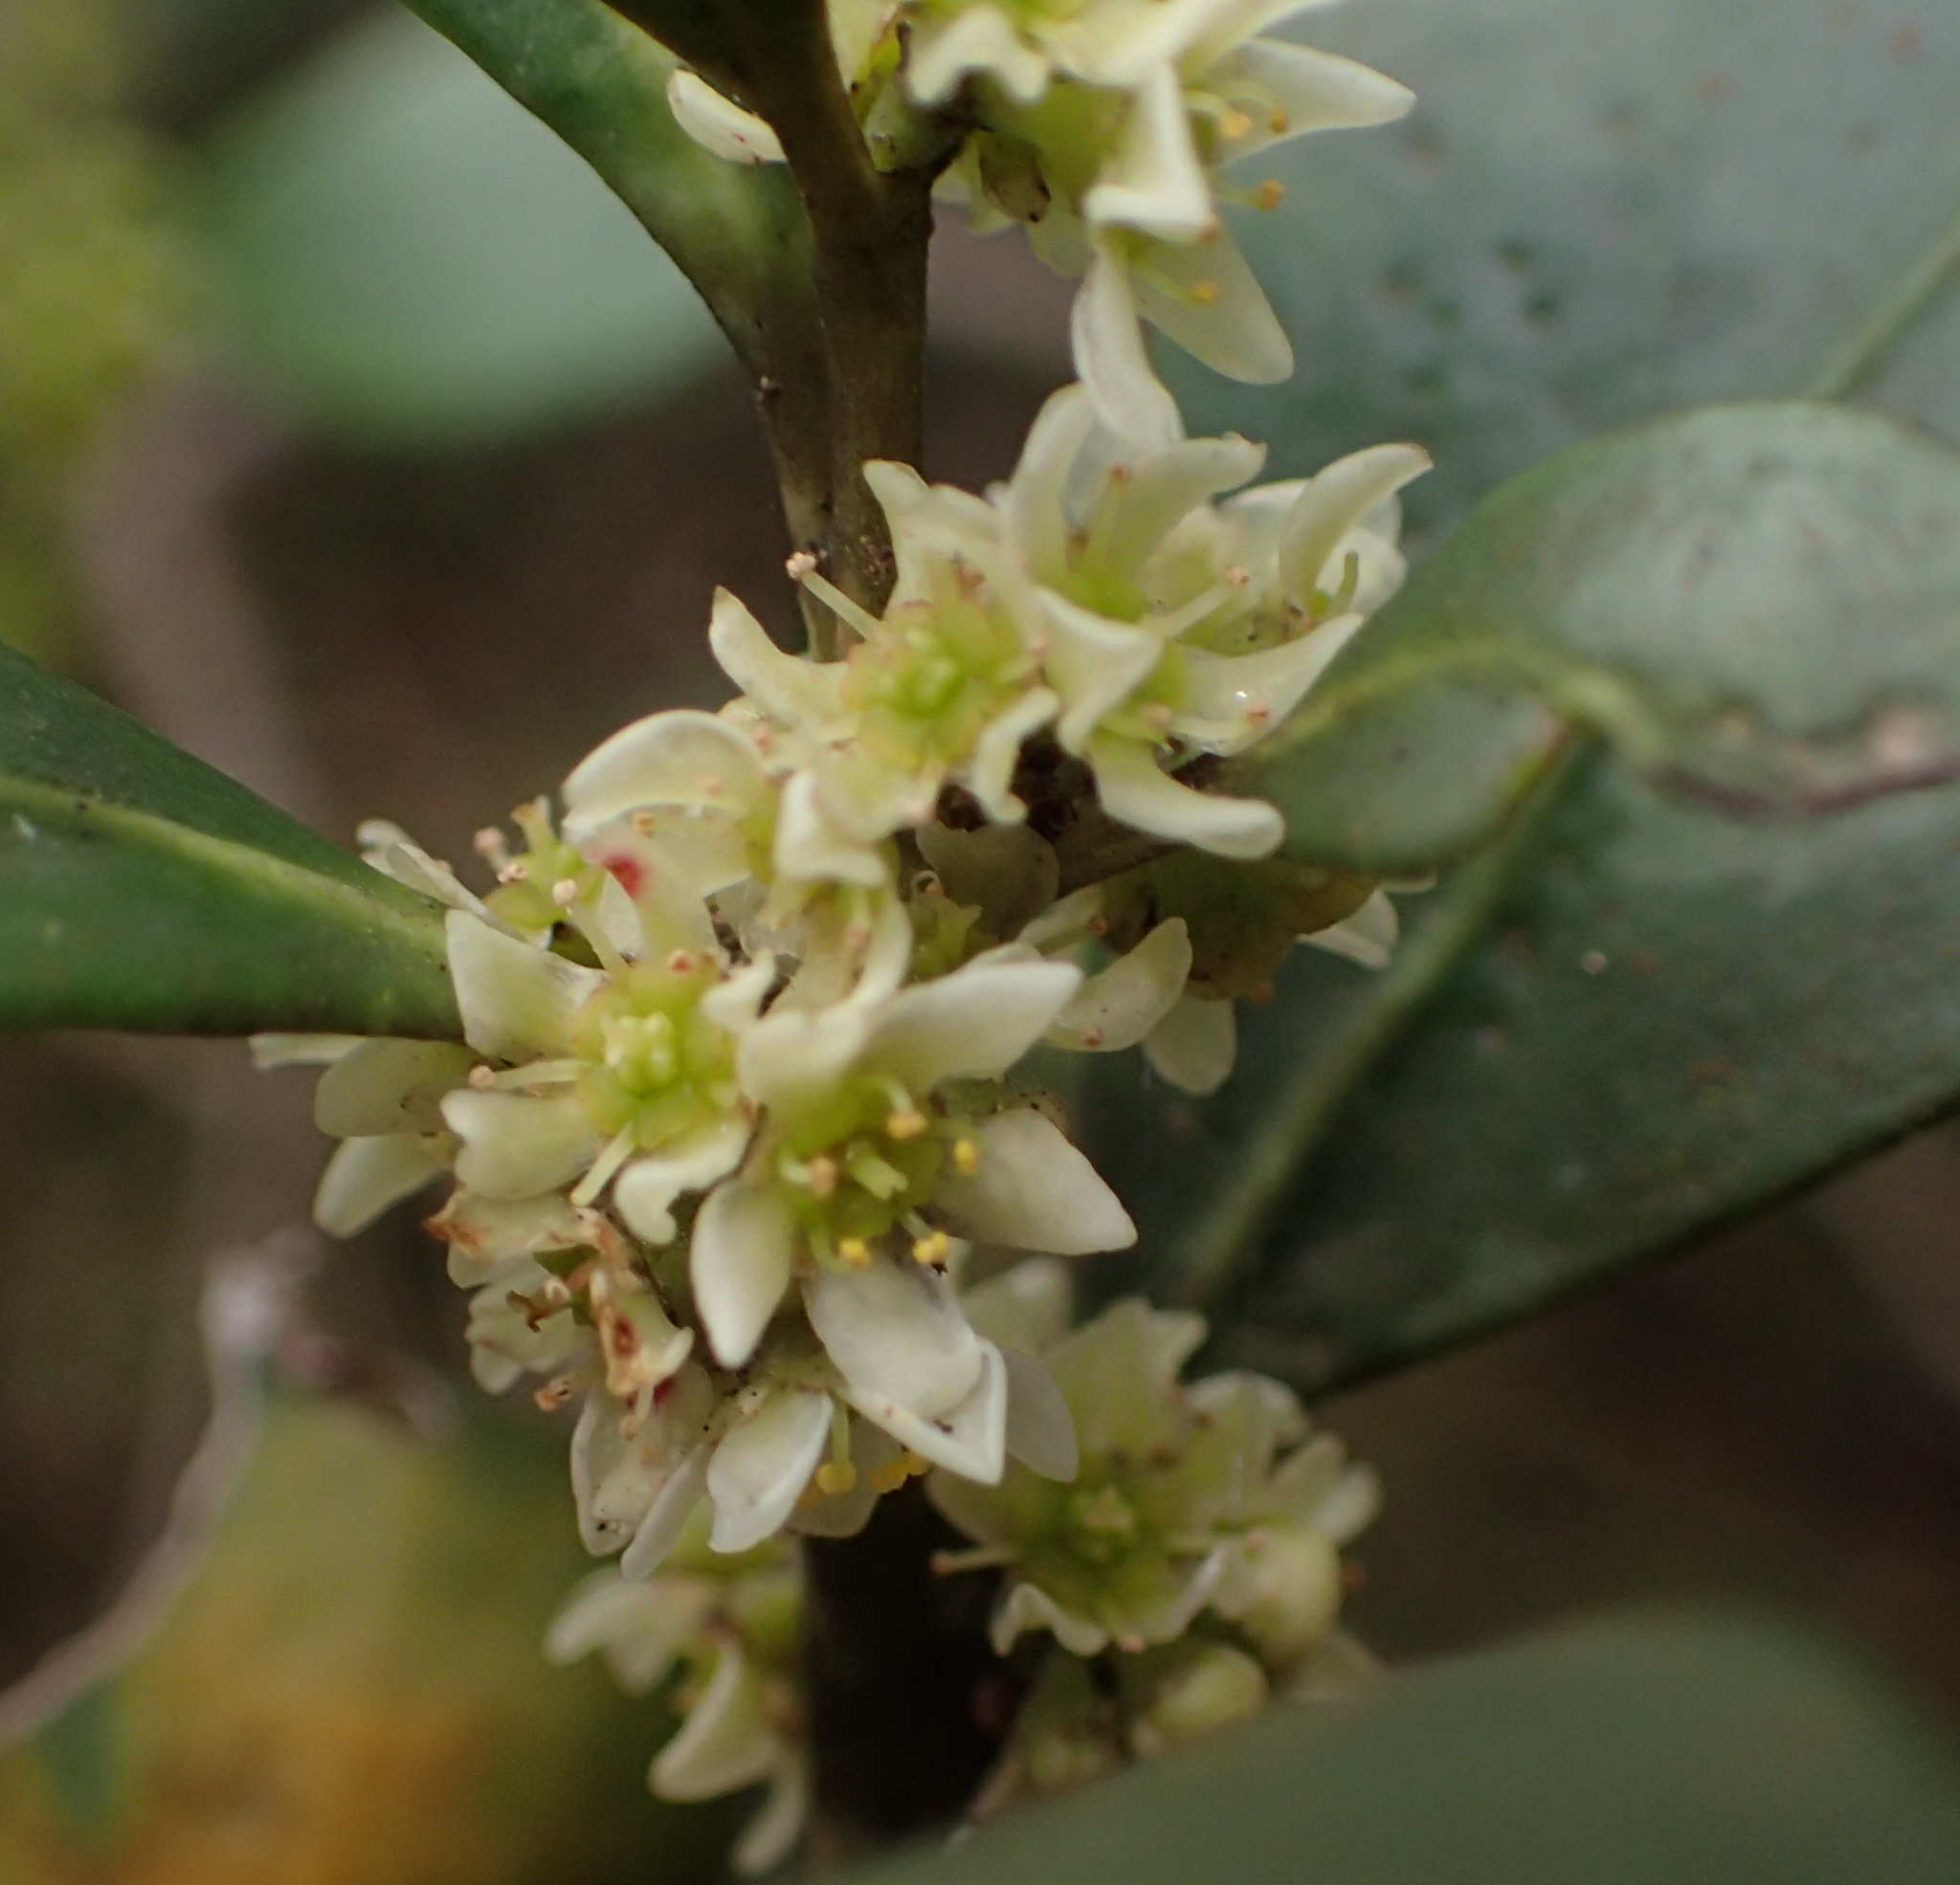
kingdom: Plantae
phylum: Tracheophyta
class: Magnoliopsida
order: Celastrales
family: Celastraceae
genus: Pterocelastrus
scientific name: Pterocelastrus tricuspidatus
